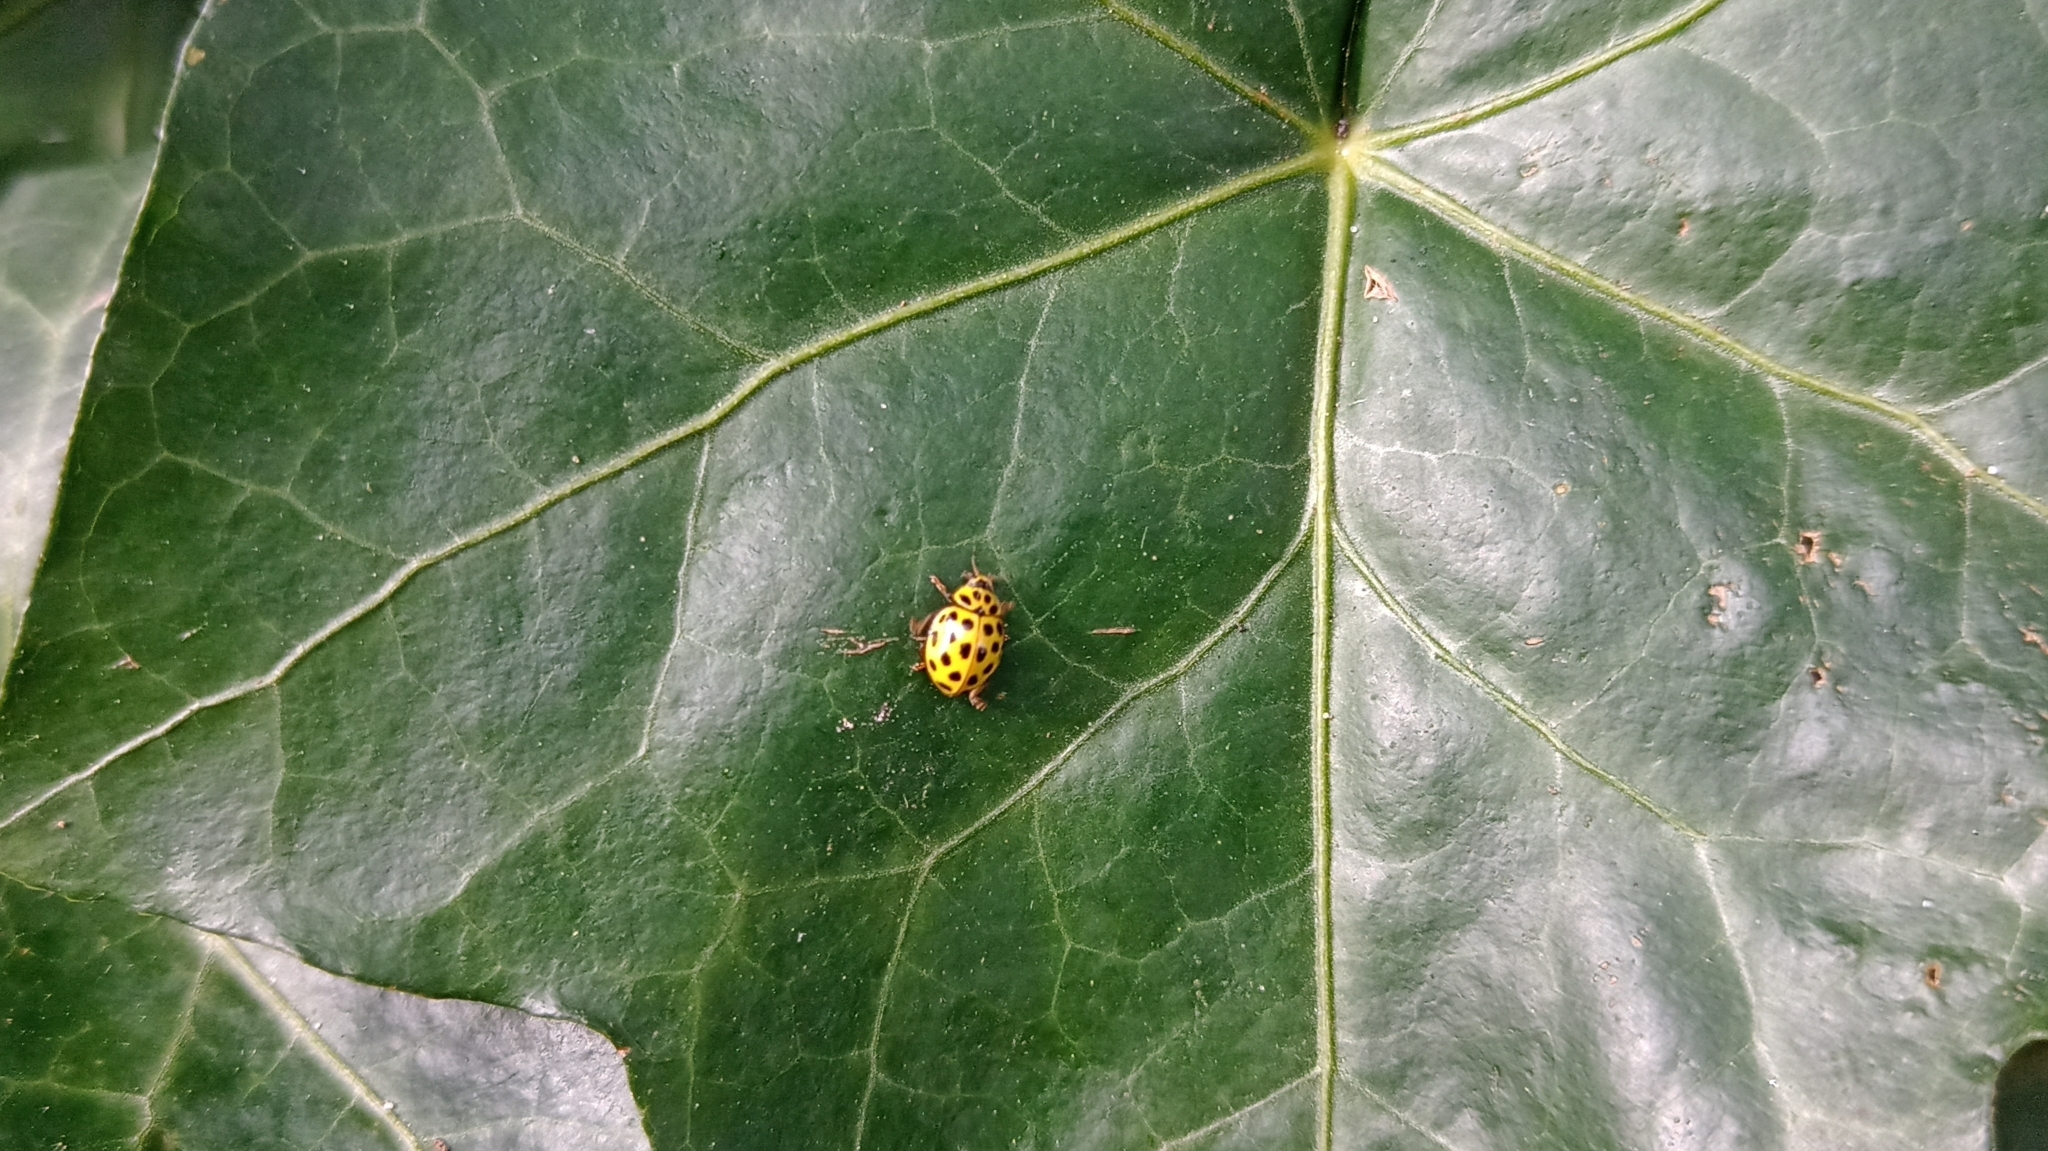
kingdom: Animalia
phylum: Arthropoda
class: Insecta
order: Coleoptera
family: Coccinellidae
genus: Psyllobora
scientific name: Psyllobora vigintiduopunctata
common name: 22-spot ladybird
